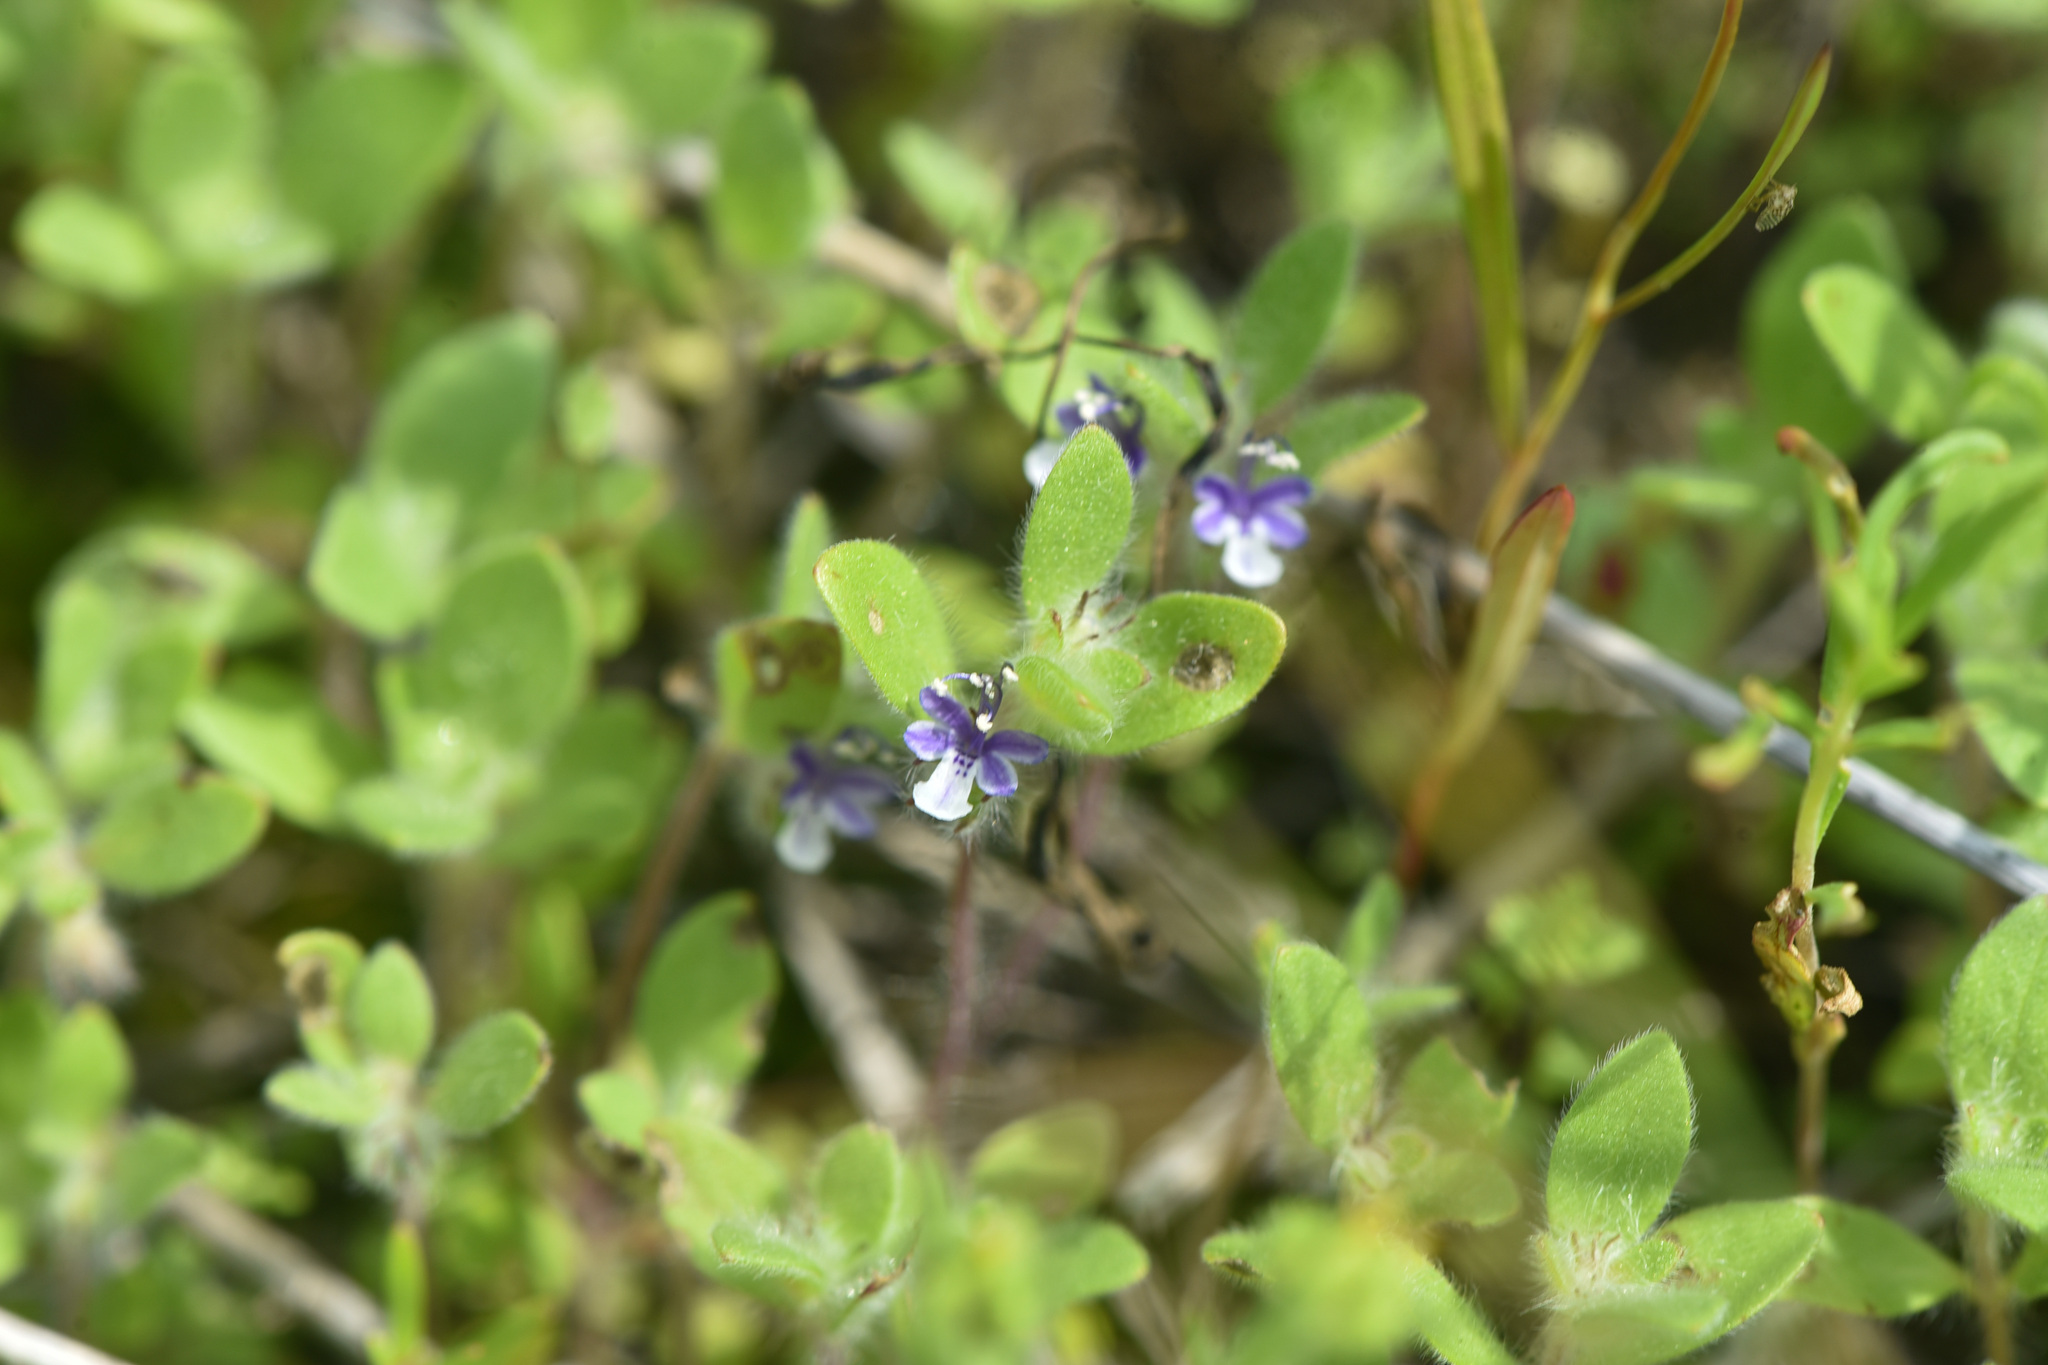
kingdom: Plantae
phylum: Tracheophyta
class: Magnoliopsida
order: Lamiales
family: Lamiaceae
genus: Trichostema
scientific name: Trichostema oblongum
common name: Mountain bluecurls
